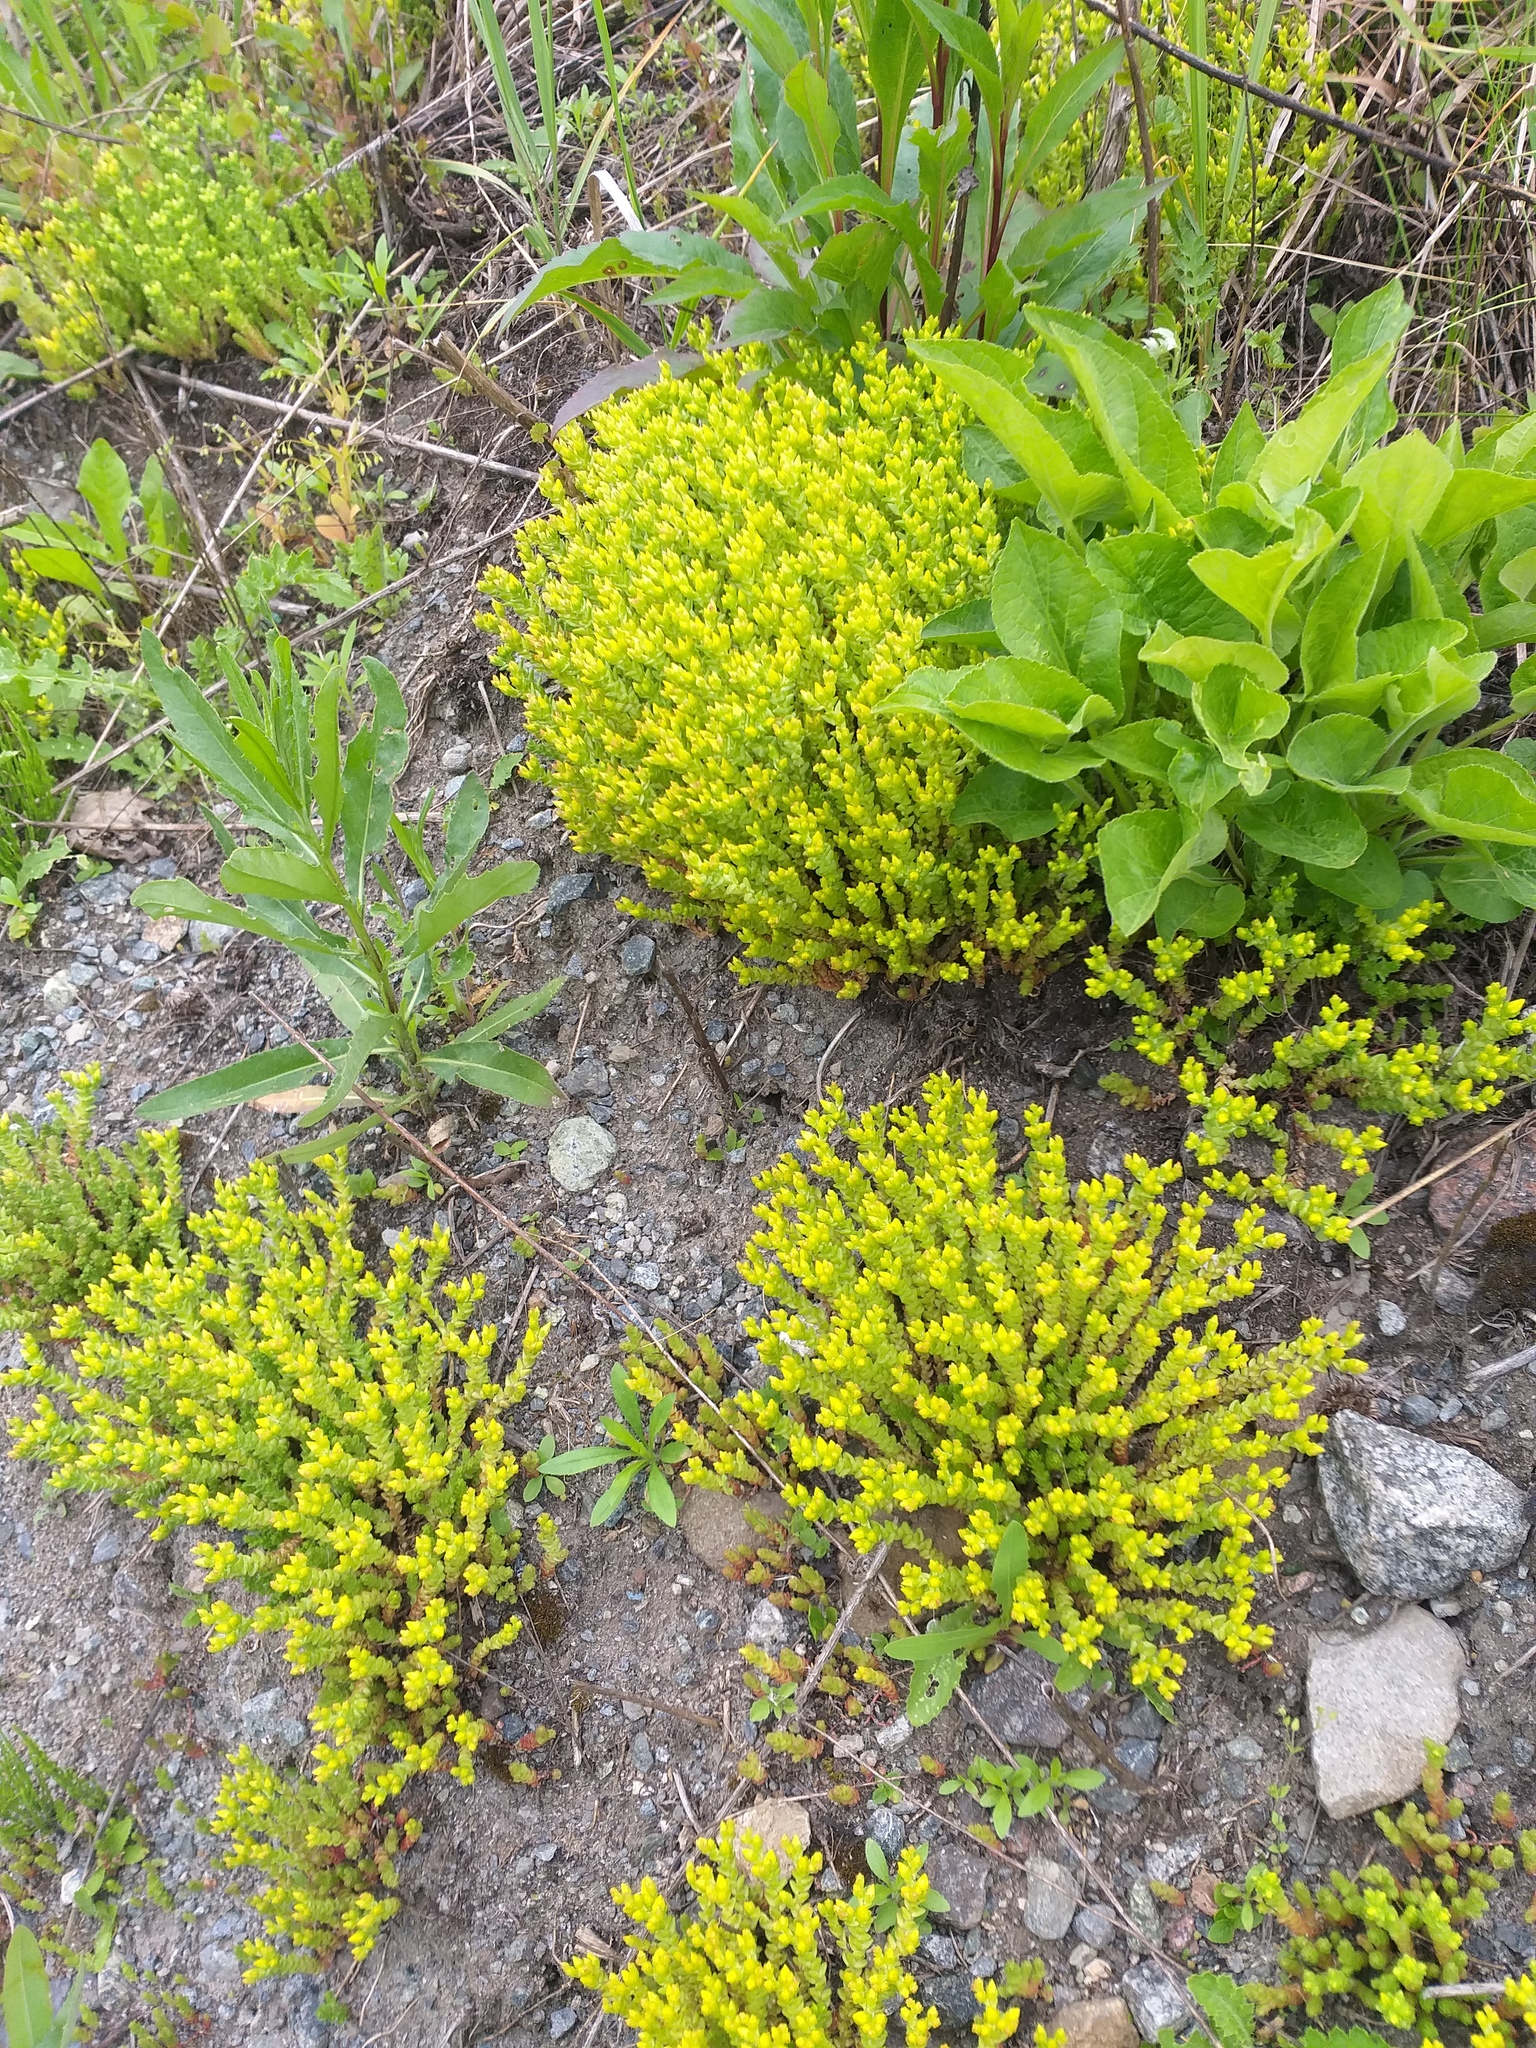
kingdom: Plantae
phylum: Tracheophyta
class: Magnoliopsida
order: Saxifragales
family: Crassulaceae
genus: Sedum
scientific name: Sedum acre
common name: Biting stonecrop
